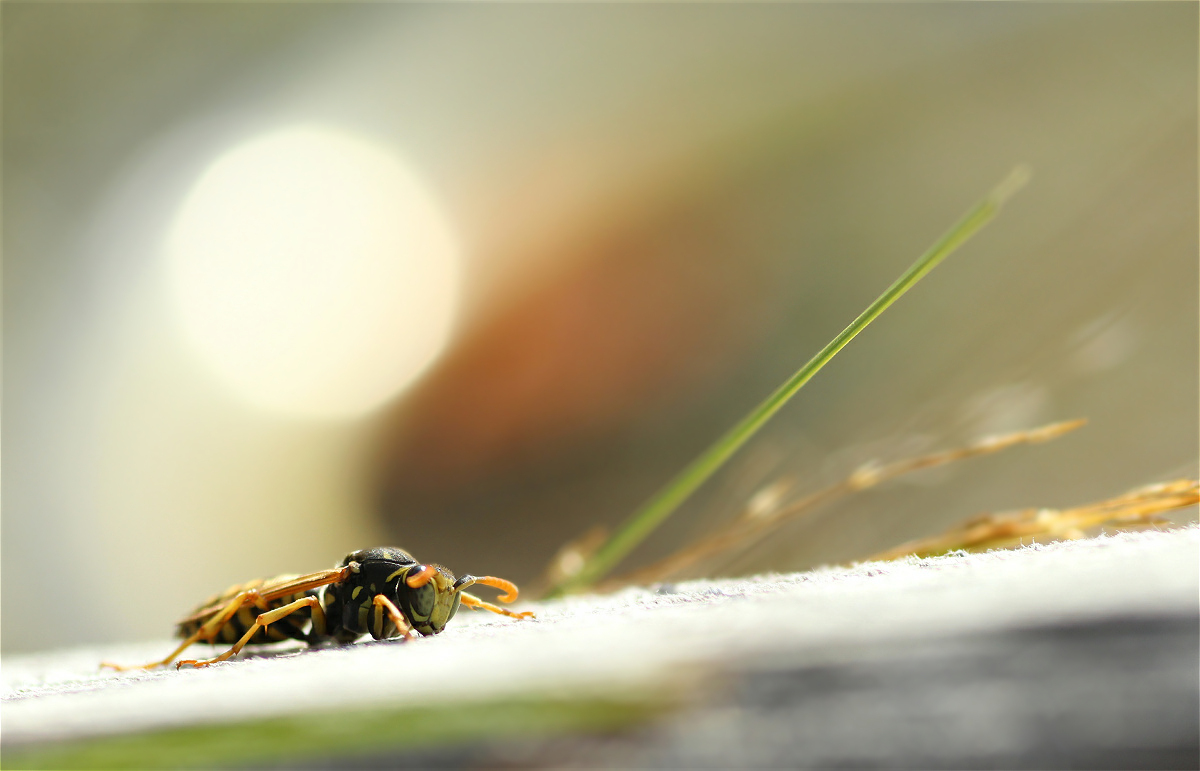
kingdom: Animalia
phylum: Arthropoda
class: Insecta
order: Hymenoptera
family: Eumenidae
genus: Polistes
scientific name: Polistes dominula
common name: Paper wasp
